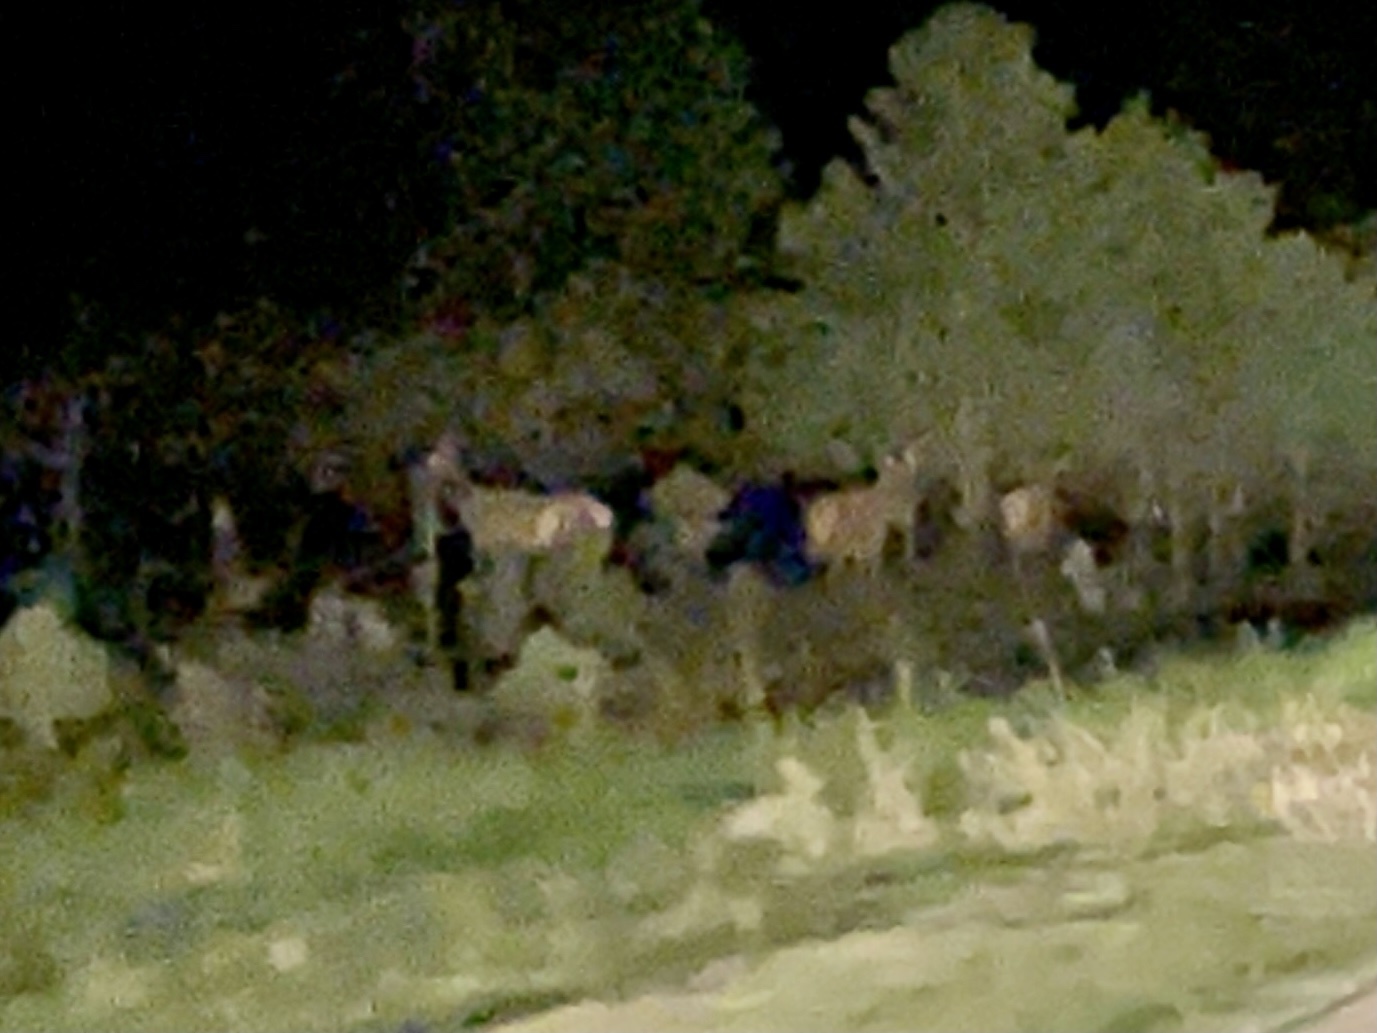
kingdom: Animalia
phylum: Chordata
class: Mammalia
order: Artiodactyla
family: Cervidae
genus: Cervus
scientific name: Cervus elaphus
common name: Red deer
